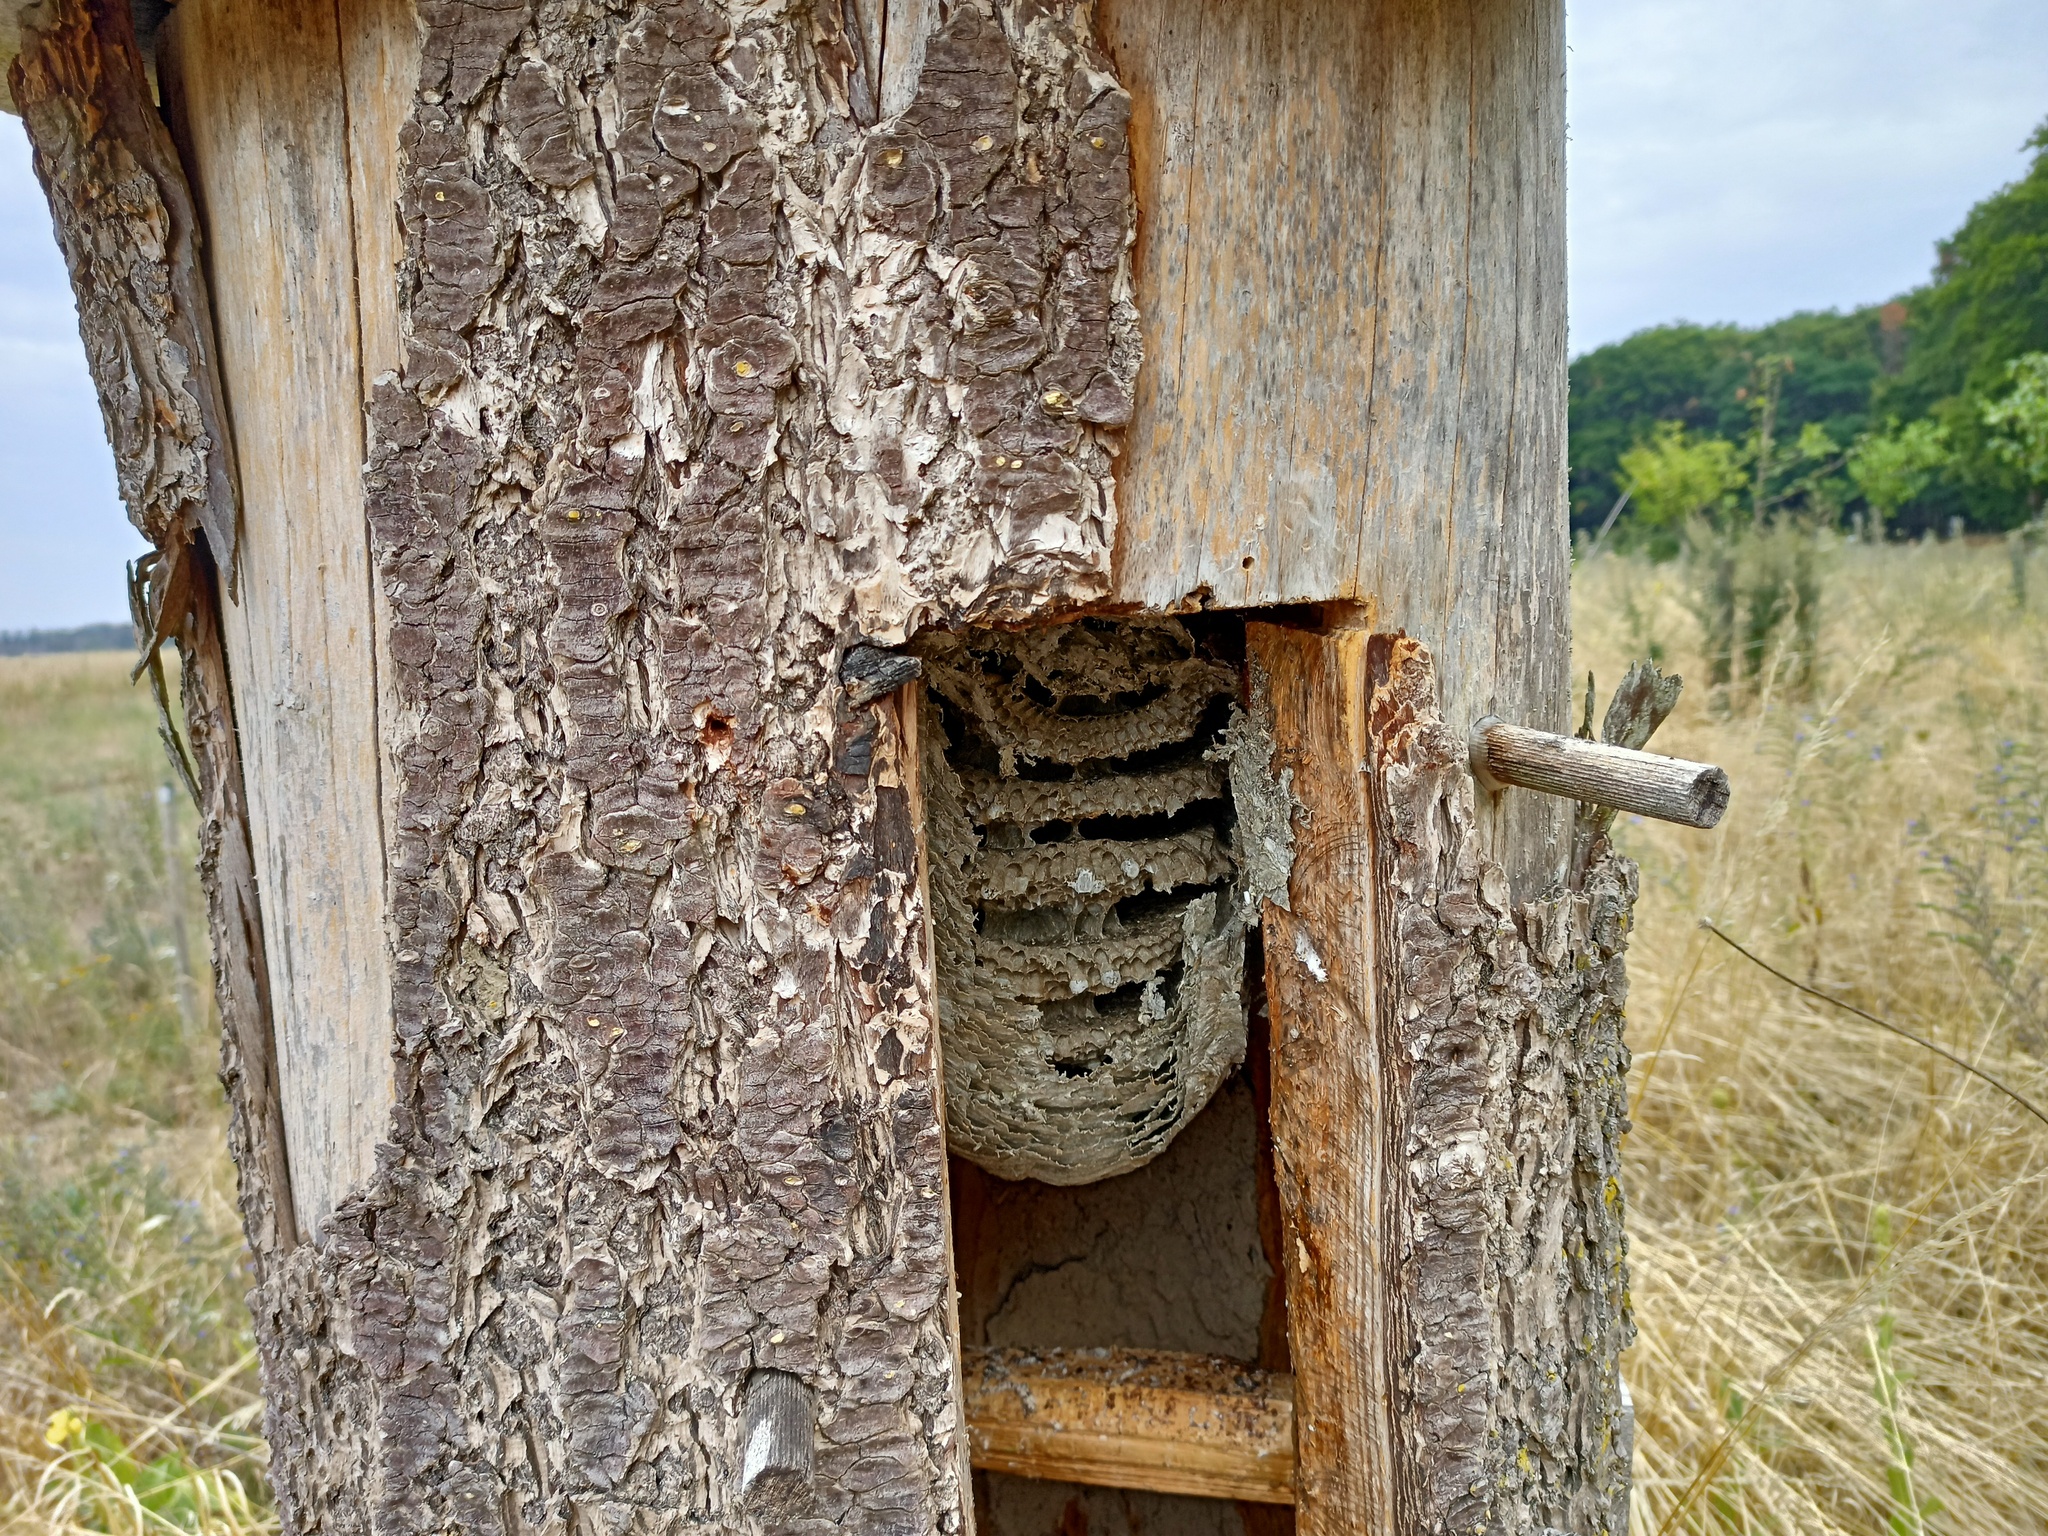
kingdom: Animalia
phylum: Arthropoda
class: Insecta
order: Hymenoptera
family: Vespidae
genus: Dolichovespula
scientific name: Dolichovespula saxonica
